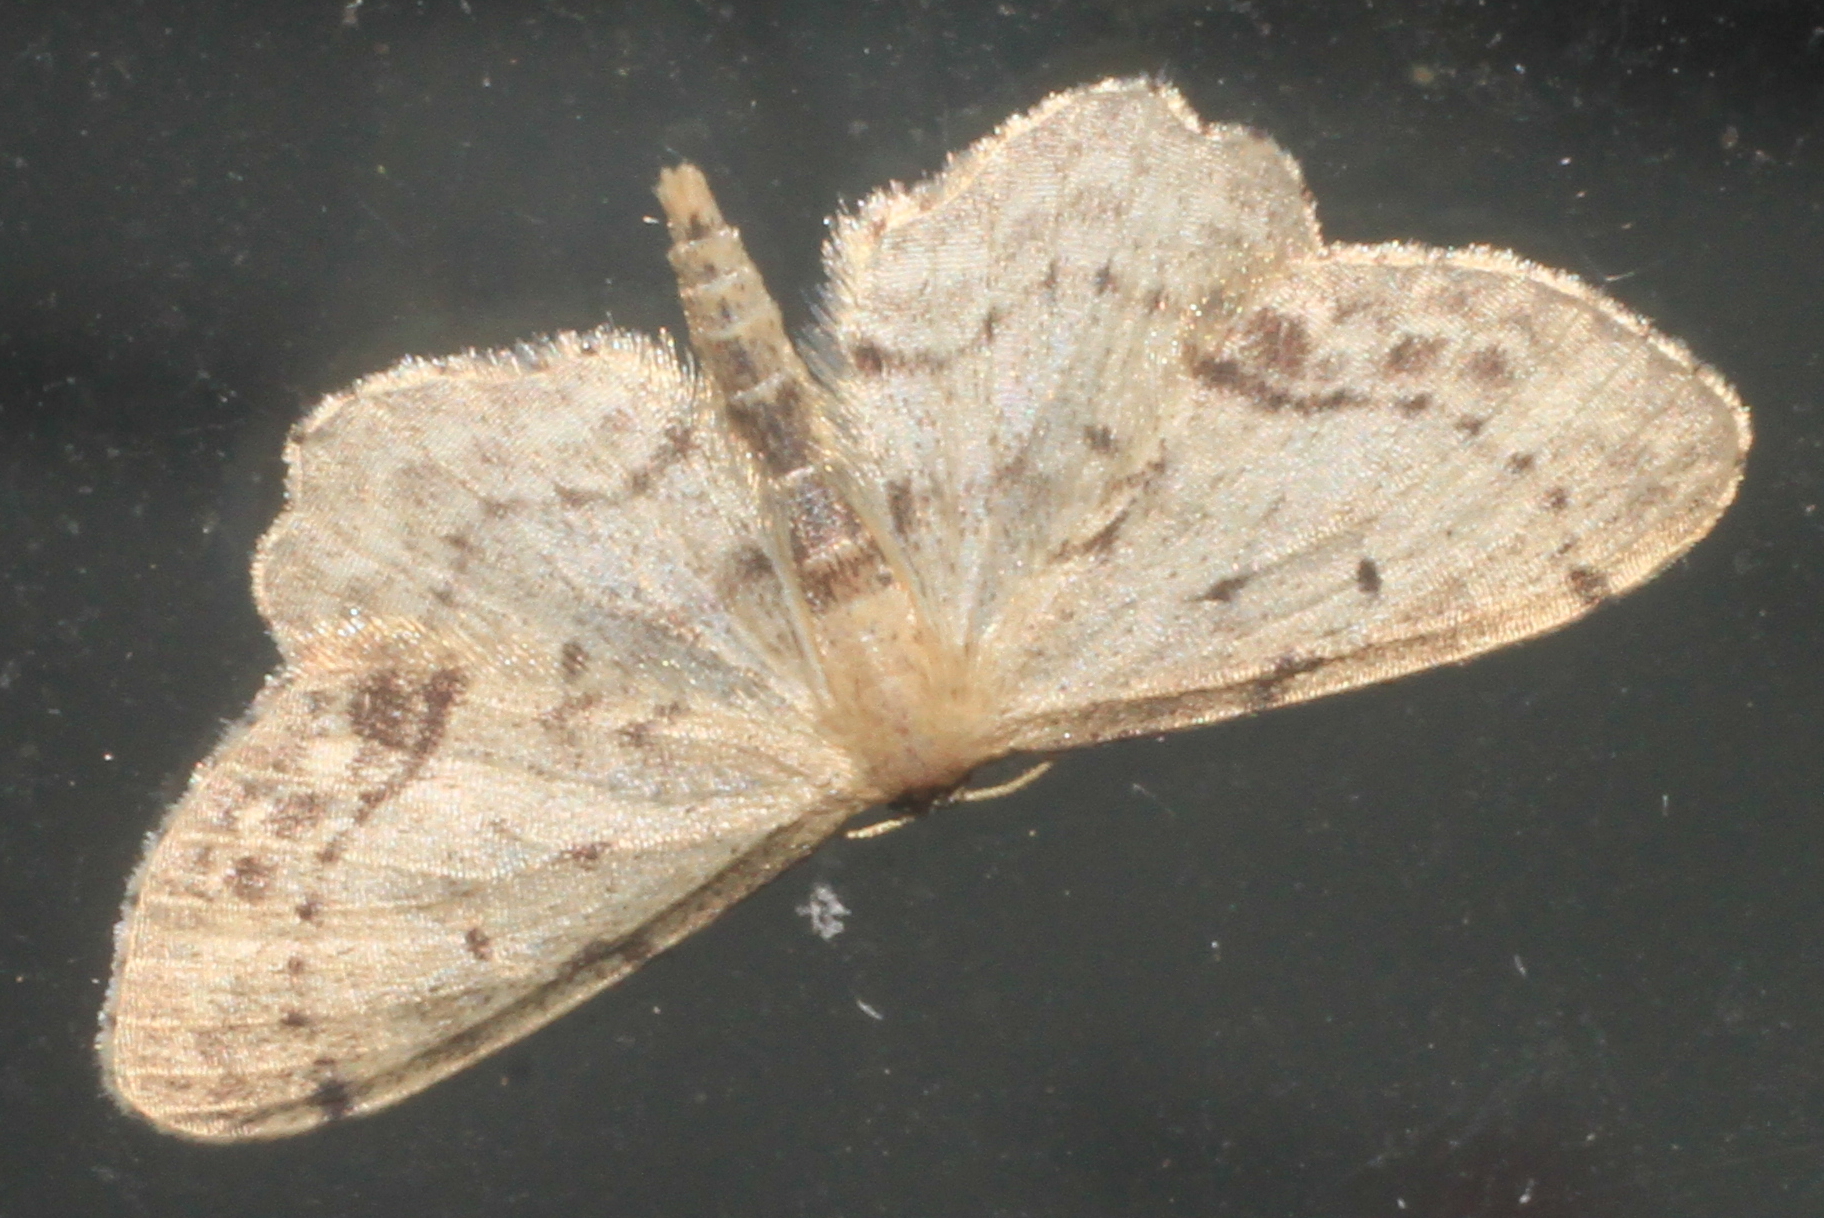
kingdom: Animalia
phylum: Arthropoda
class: Insecta
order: Lepidoptera
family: Geometridae
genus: Idaea
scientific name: Idaea dimidiata
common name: Single-dotted wave
